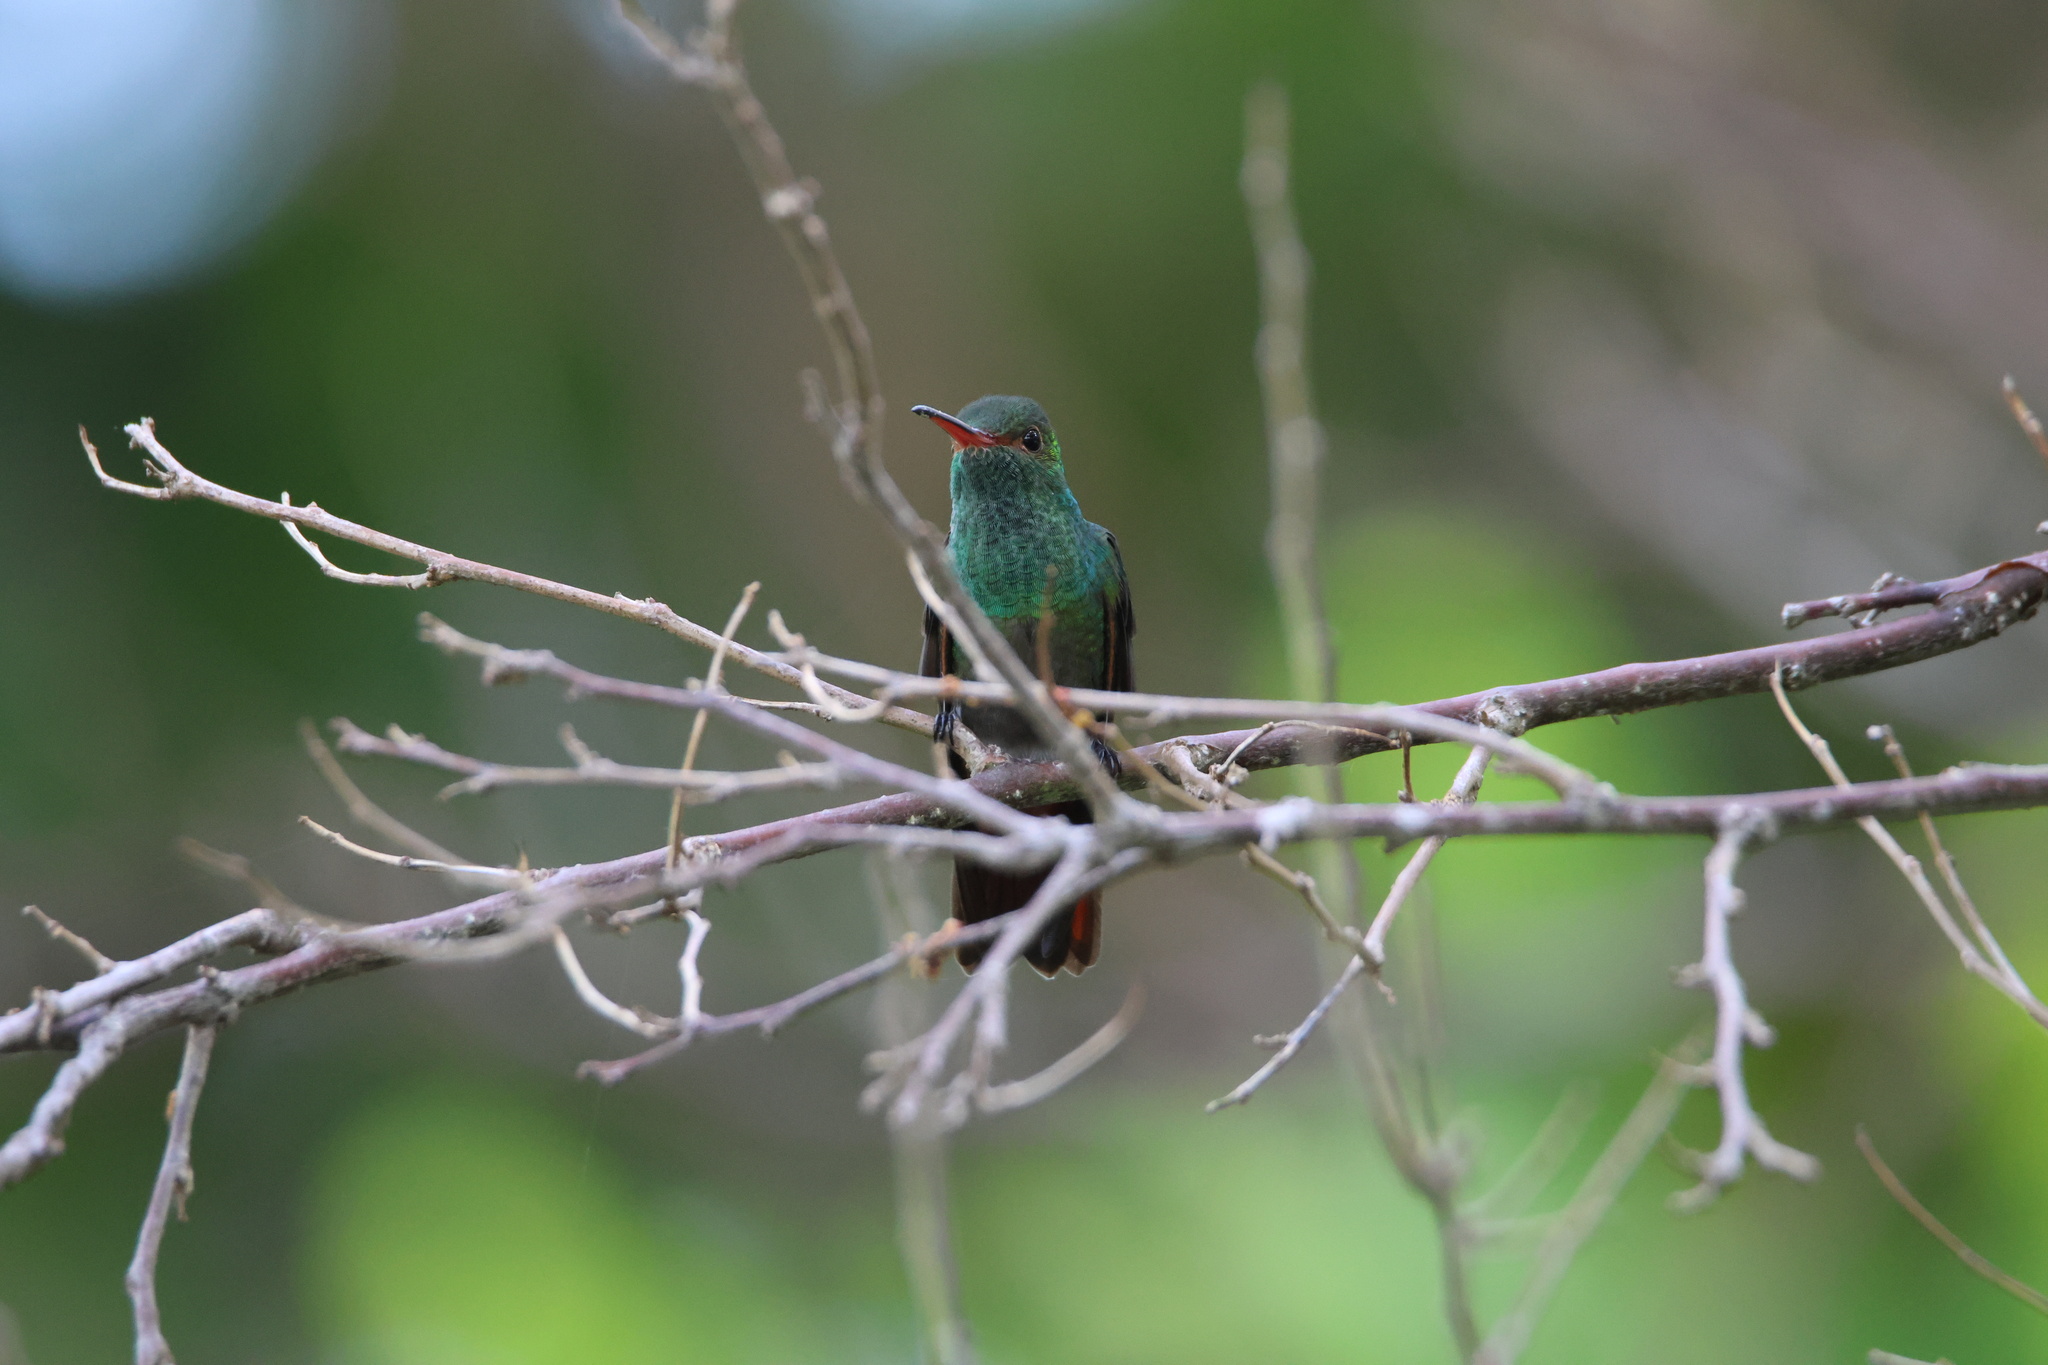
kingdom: Animalia
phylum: Chordata
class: Aves
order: Apodiformes
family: Trochilidae
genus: Amazilia
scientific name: Amazilia tzacatl
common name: Rufous-tailed hummingbird
